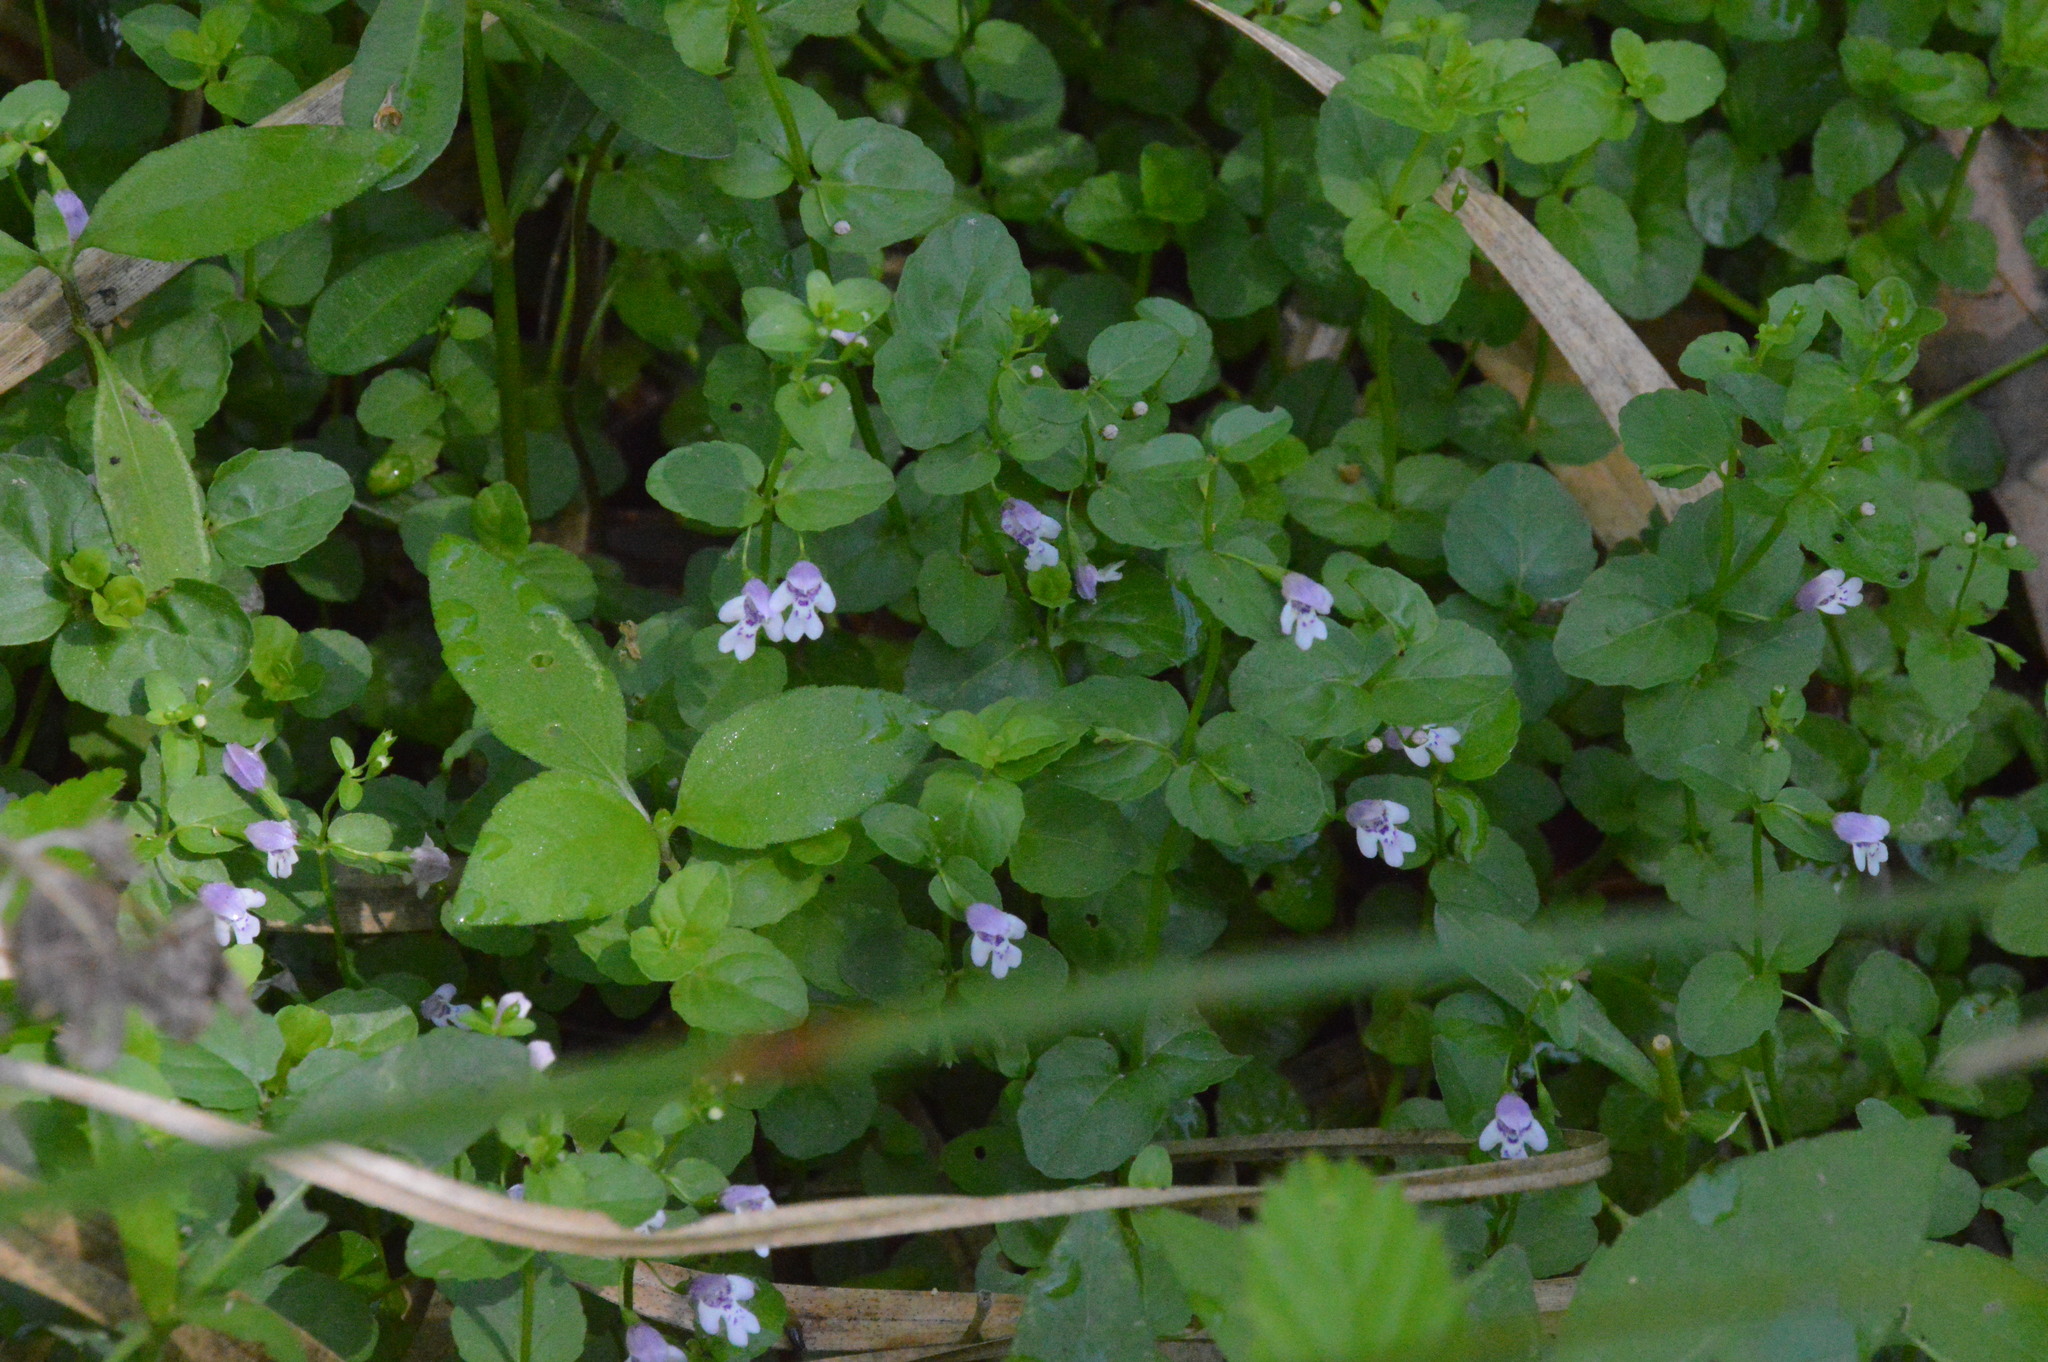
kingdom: Plantae
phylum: Tracheophyta
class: Magnoliopsida
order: Lamiales
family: Lamiaceae
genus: Clinopodium
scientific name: Clinopodium brownei
